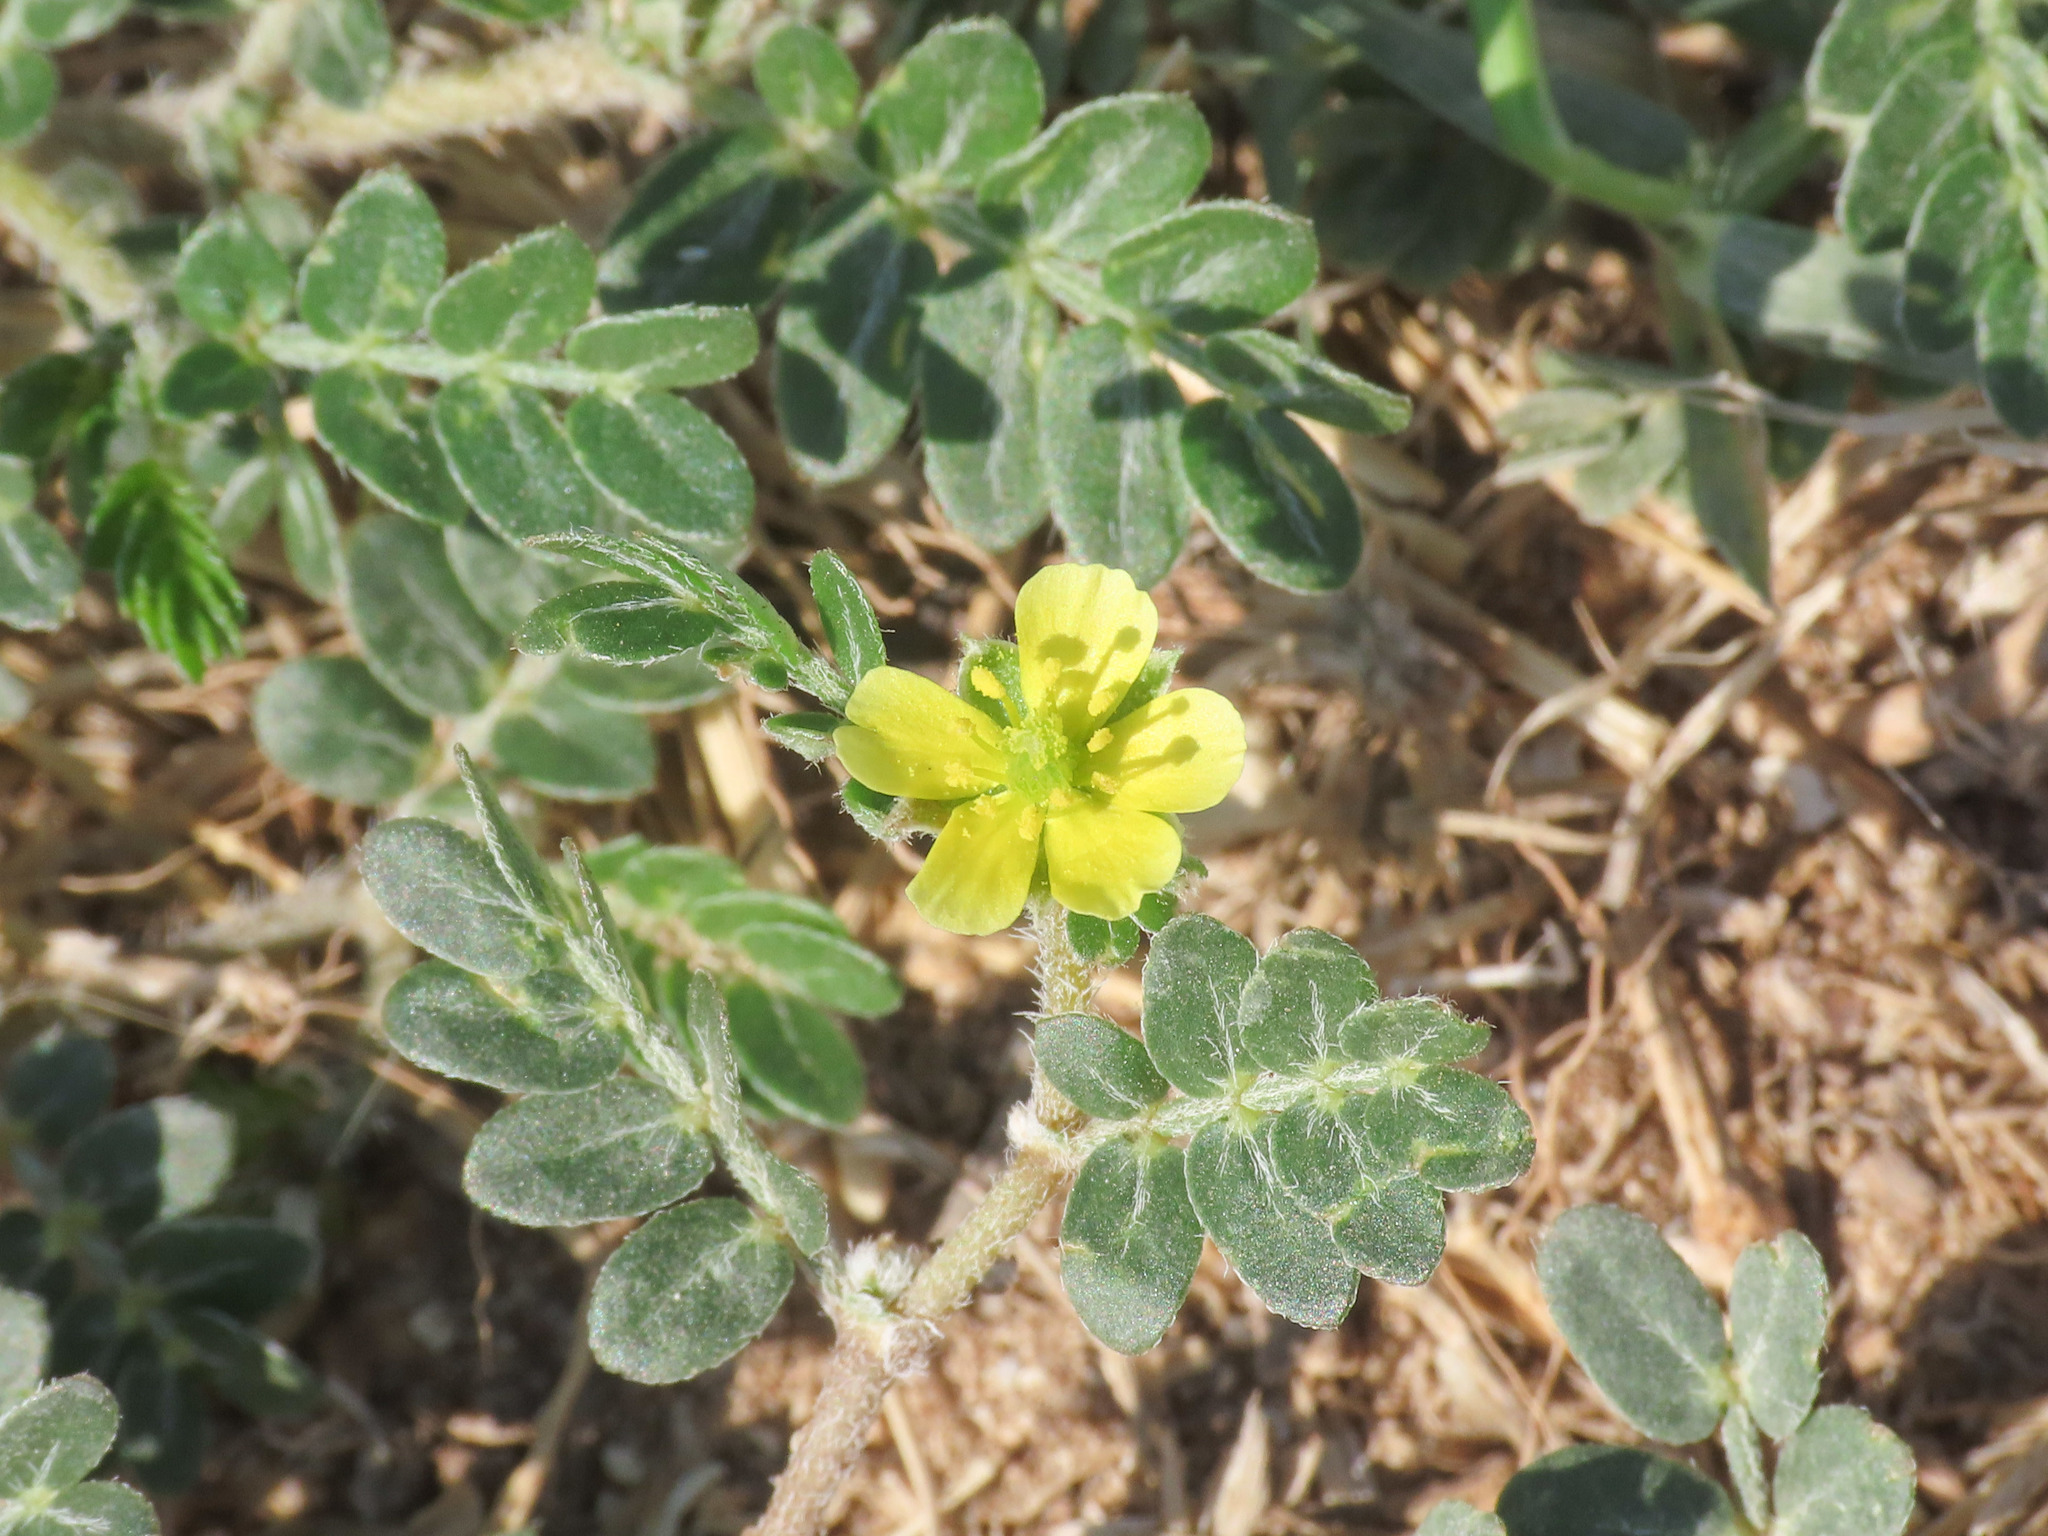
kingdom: Plantae
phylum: Tracheophyta
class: Magnoliopsida
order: Zygophyllales
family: Zygophyllaceae
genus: Tribulus
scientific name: Tribulus terrestris
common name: Puncturevine
